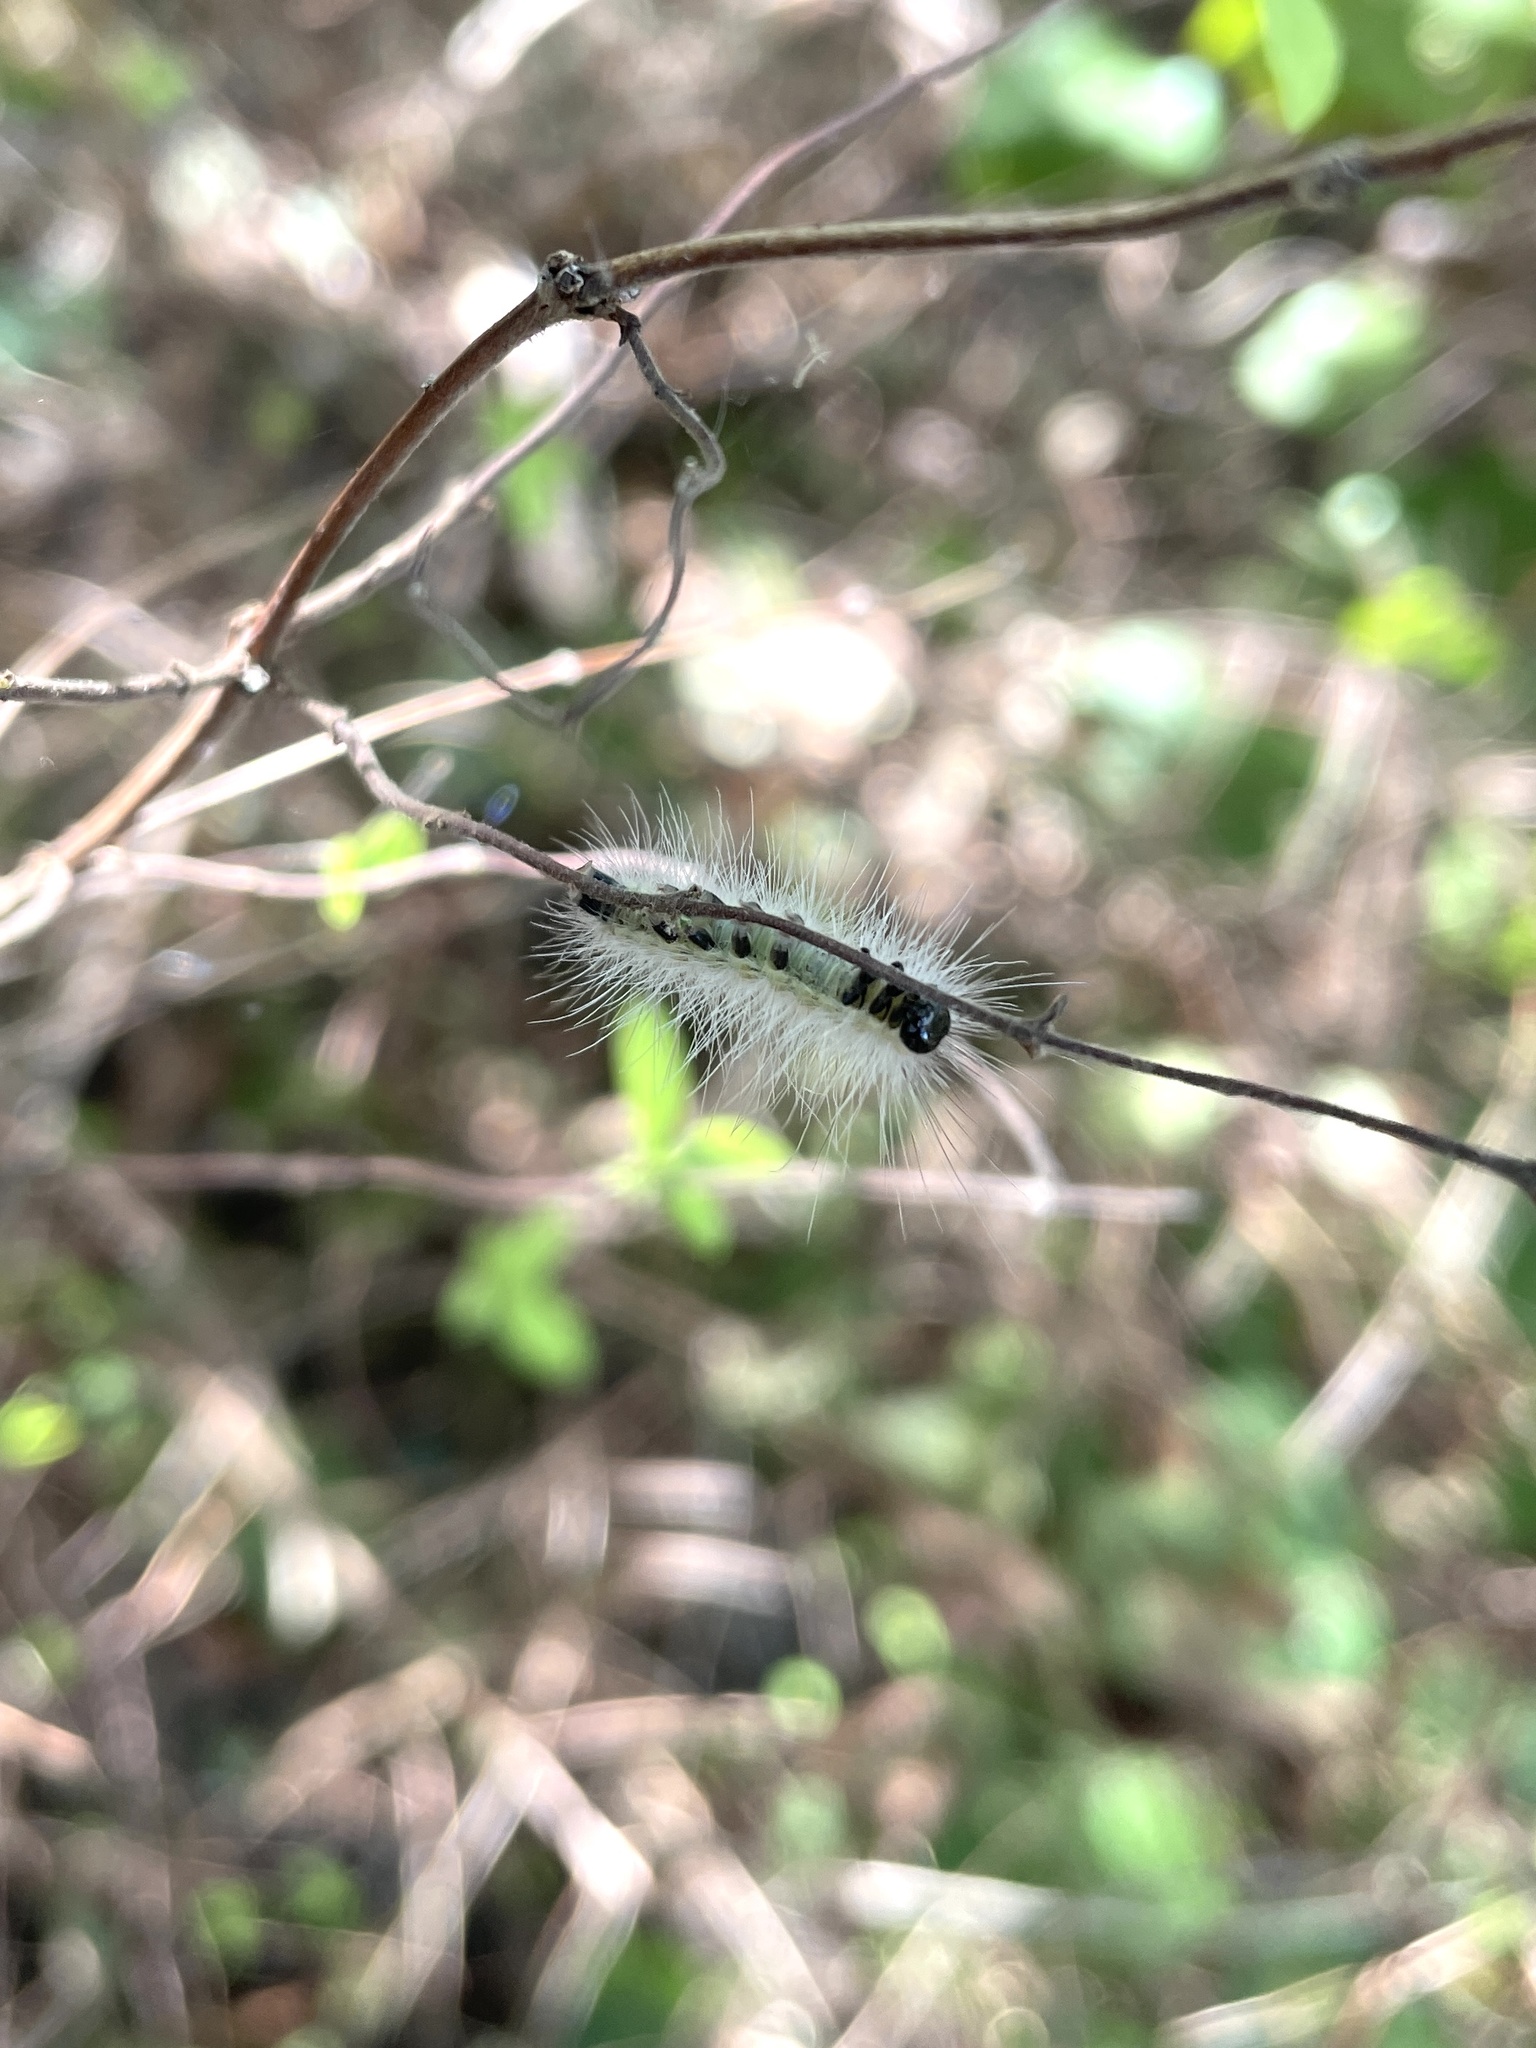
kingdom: Animalia
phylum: Arthropoda
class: Insecta
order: Lepidoptera
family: Erebidae
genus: Hyphantria
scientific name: Hyphantria cunea
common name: American white moth
